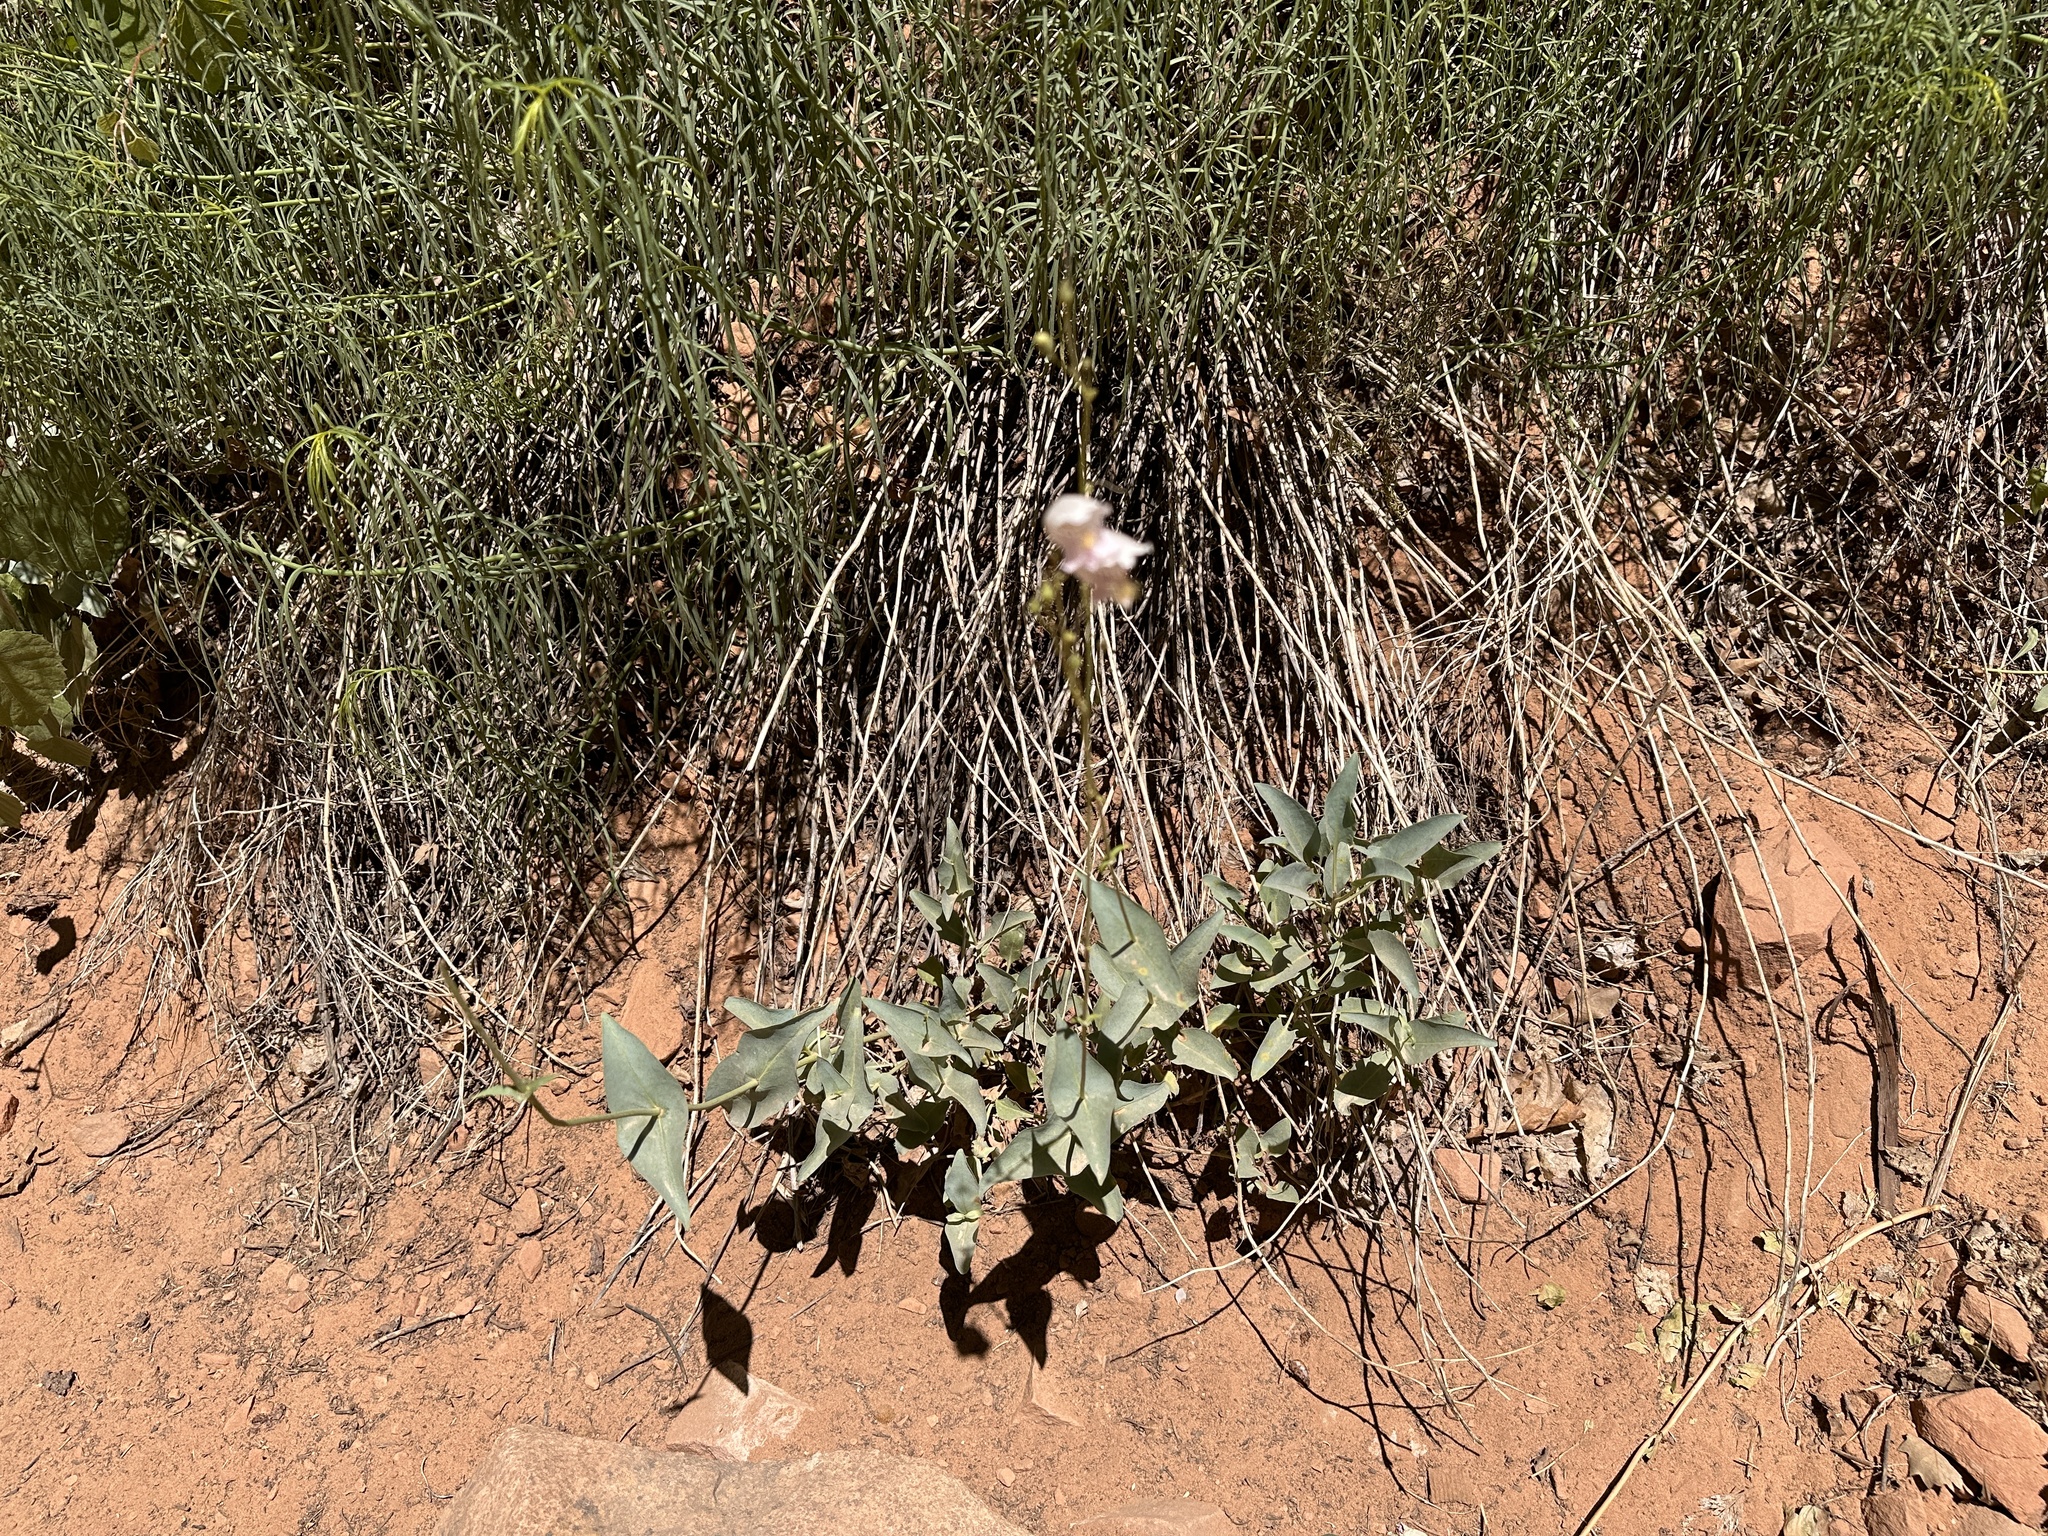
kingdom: Plantae
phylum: Tracheophyta
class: Magnoliopsida
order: Lamiales
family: Plantaginaceae
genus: Penstemon
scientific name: Penstemon palmeri
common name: Palmer penstemon
